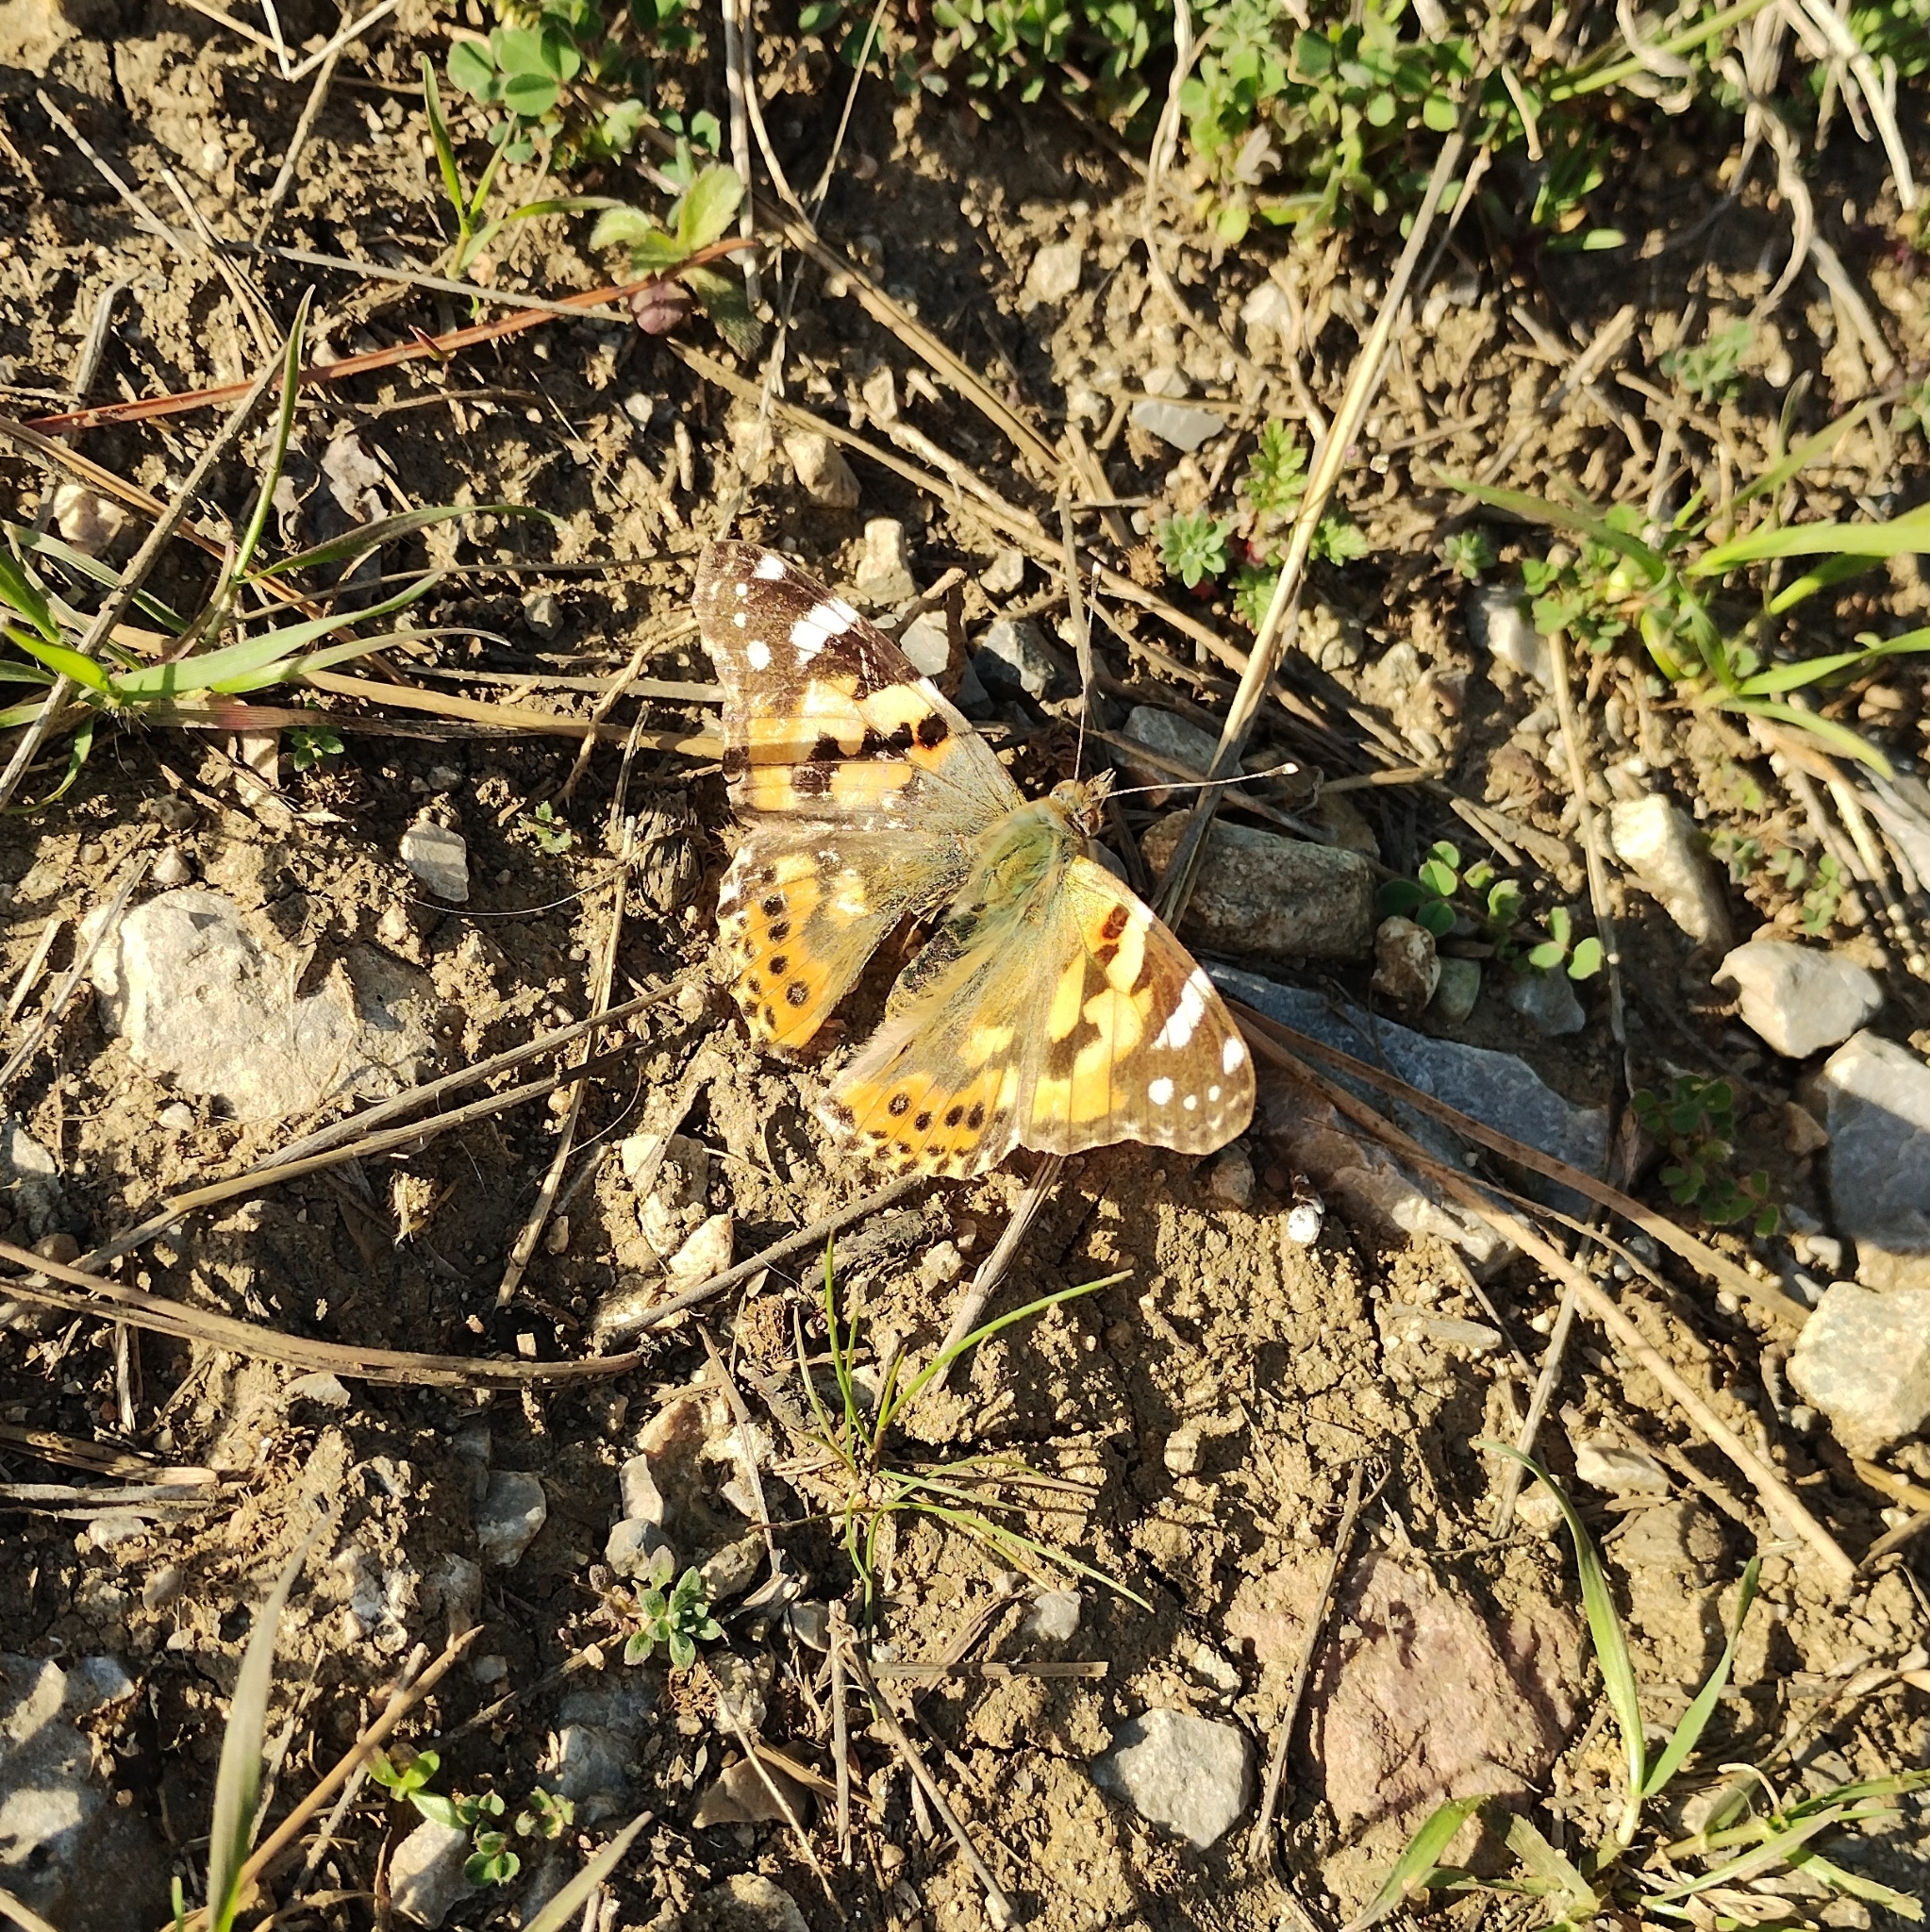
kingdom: Animalia
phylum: Arthropoda
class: Insecta
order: Lepidoptera
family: Nymphalidae
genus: Vanessa
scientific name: Vanessa cardui
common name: Painted lady
